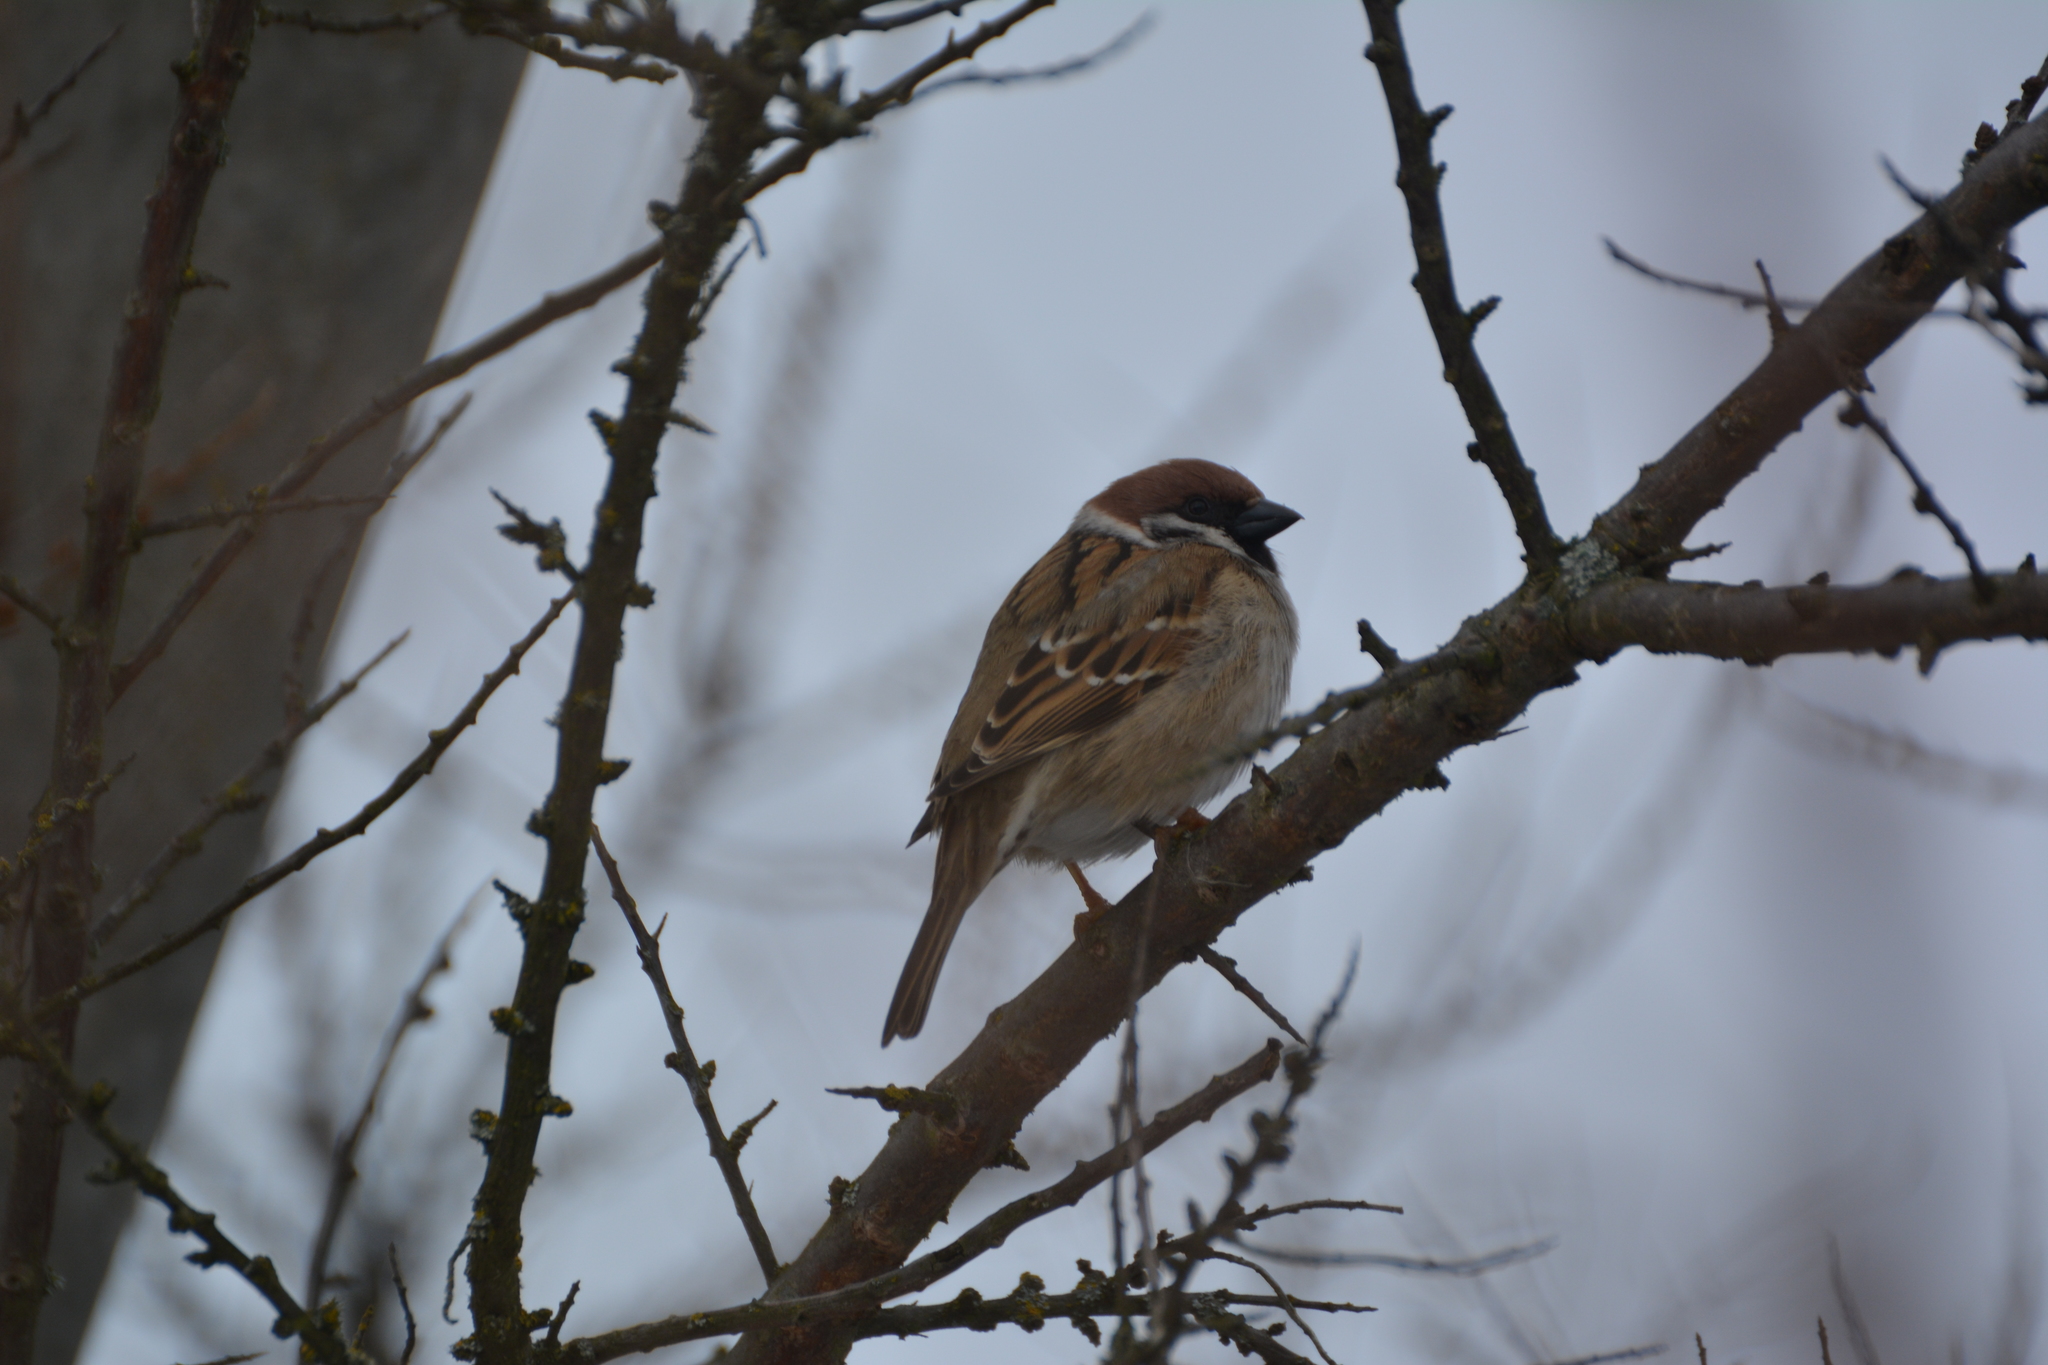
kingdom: Animalia
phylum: Chordata
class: Aves
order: Passeriformes
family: Passeridae
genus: Passer
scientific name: Passer montanus
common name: Eurasian tree sparrow
